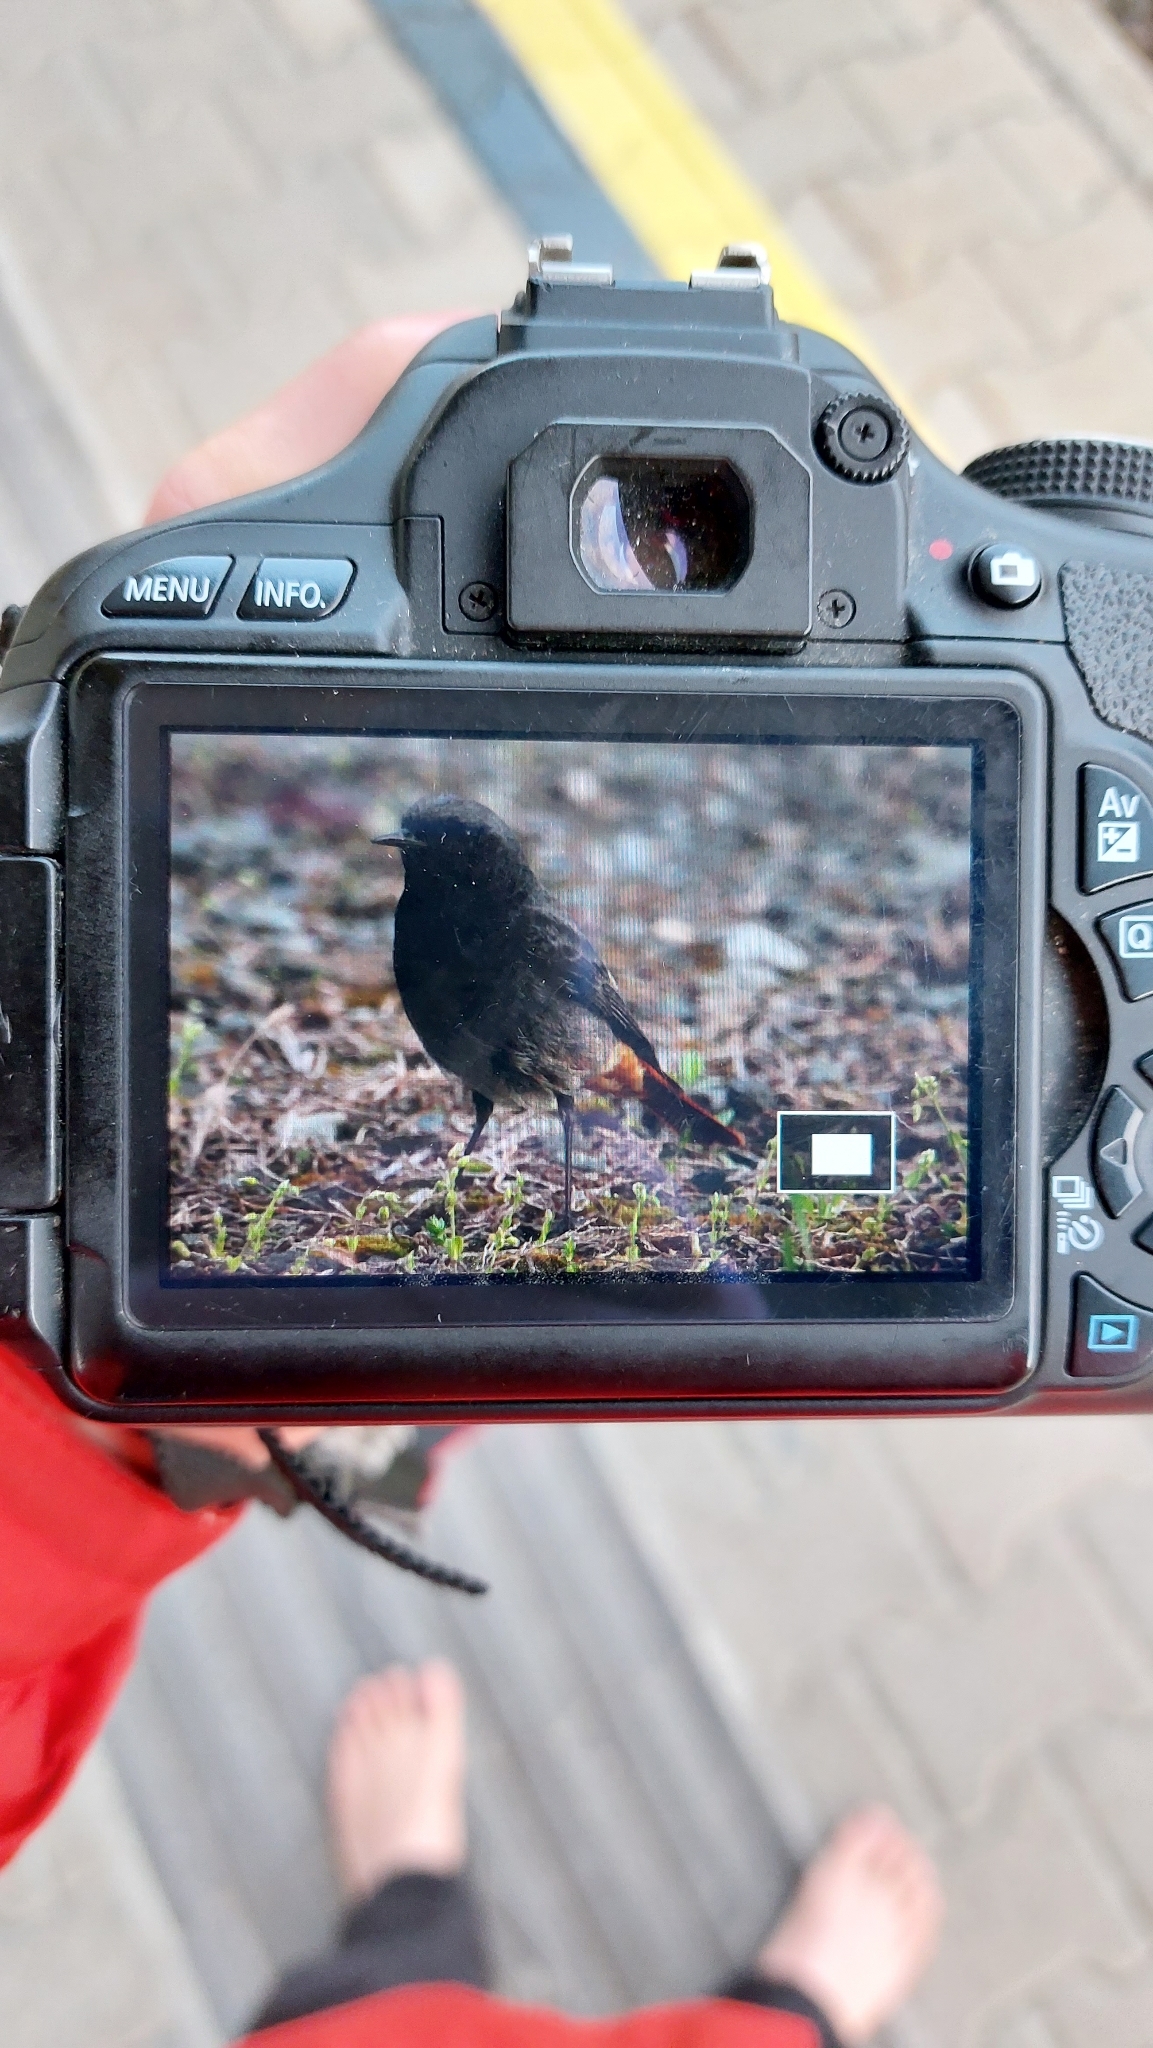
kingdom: Animalia
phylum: Chordata
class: Aves
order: Passeriformes
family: Muscicapidae
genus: Phoenicurus
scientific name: Phoenicurus ochruros
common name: Black redstart
